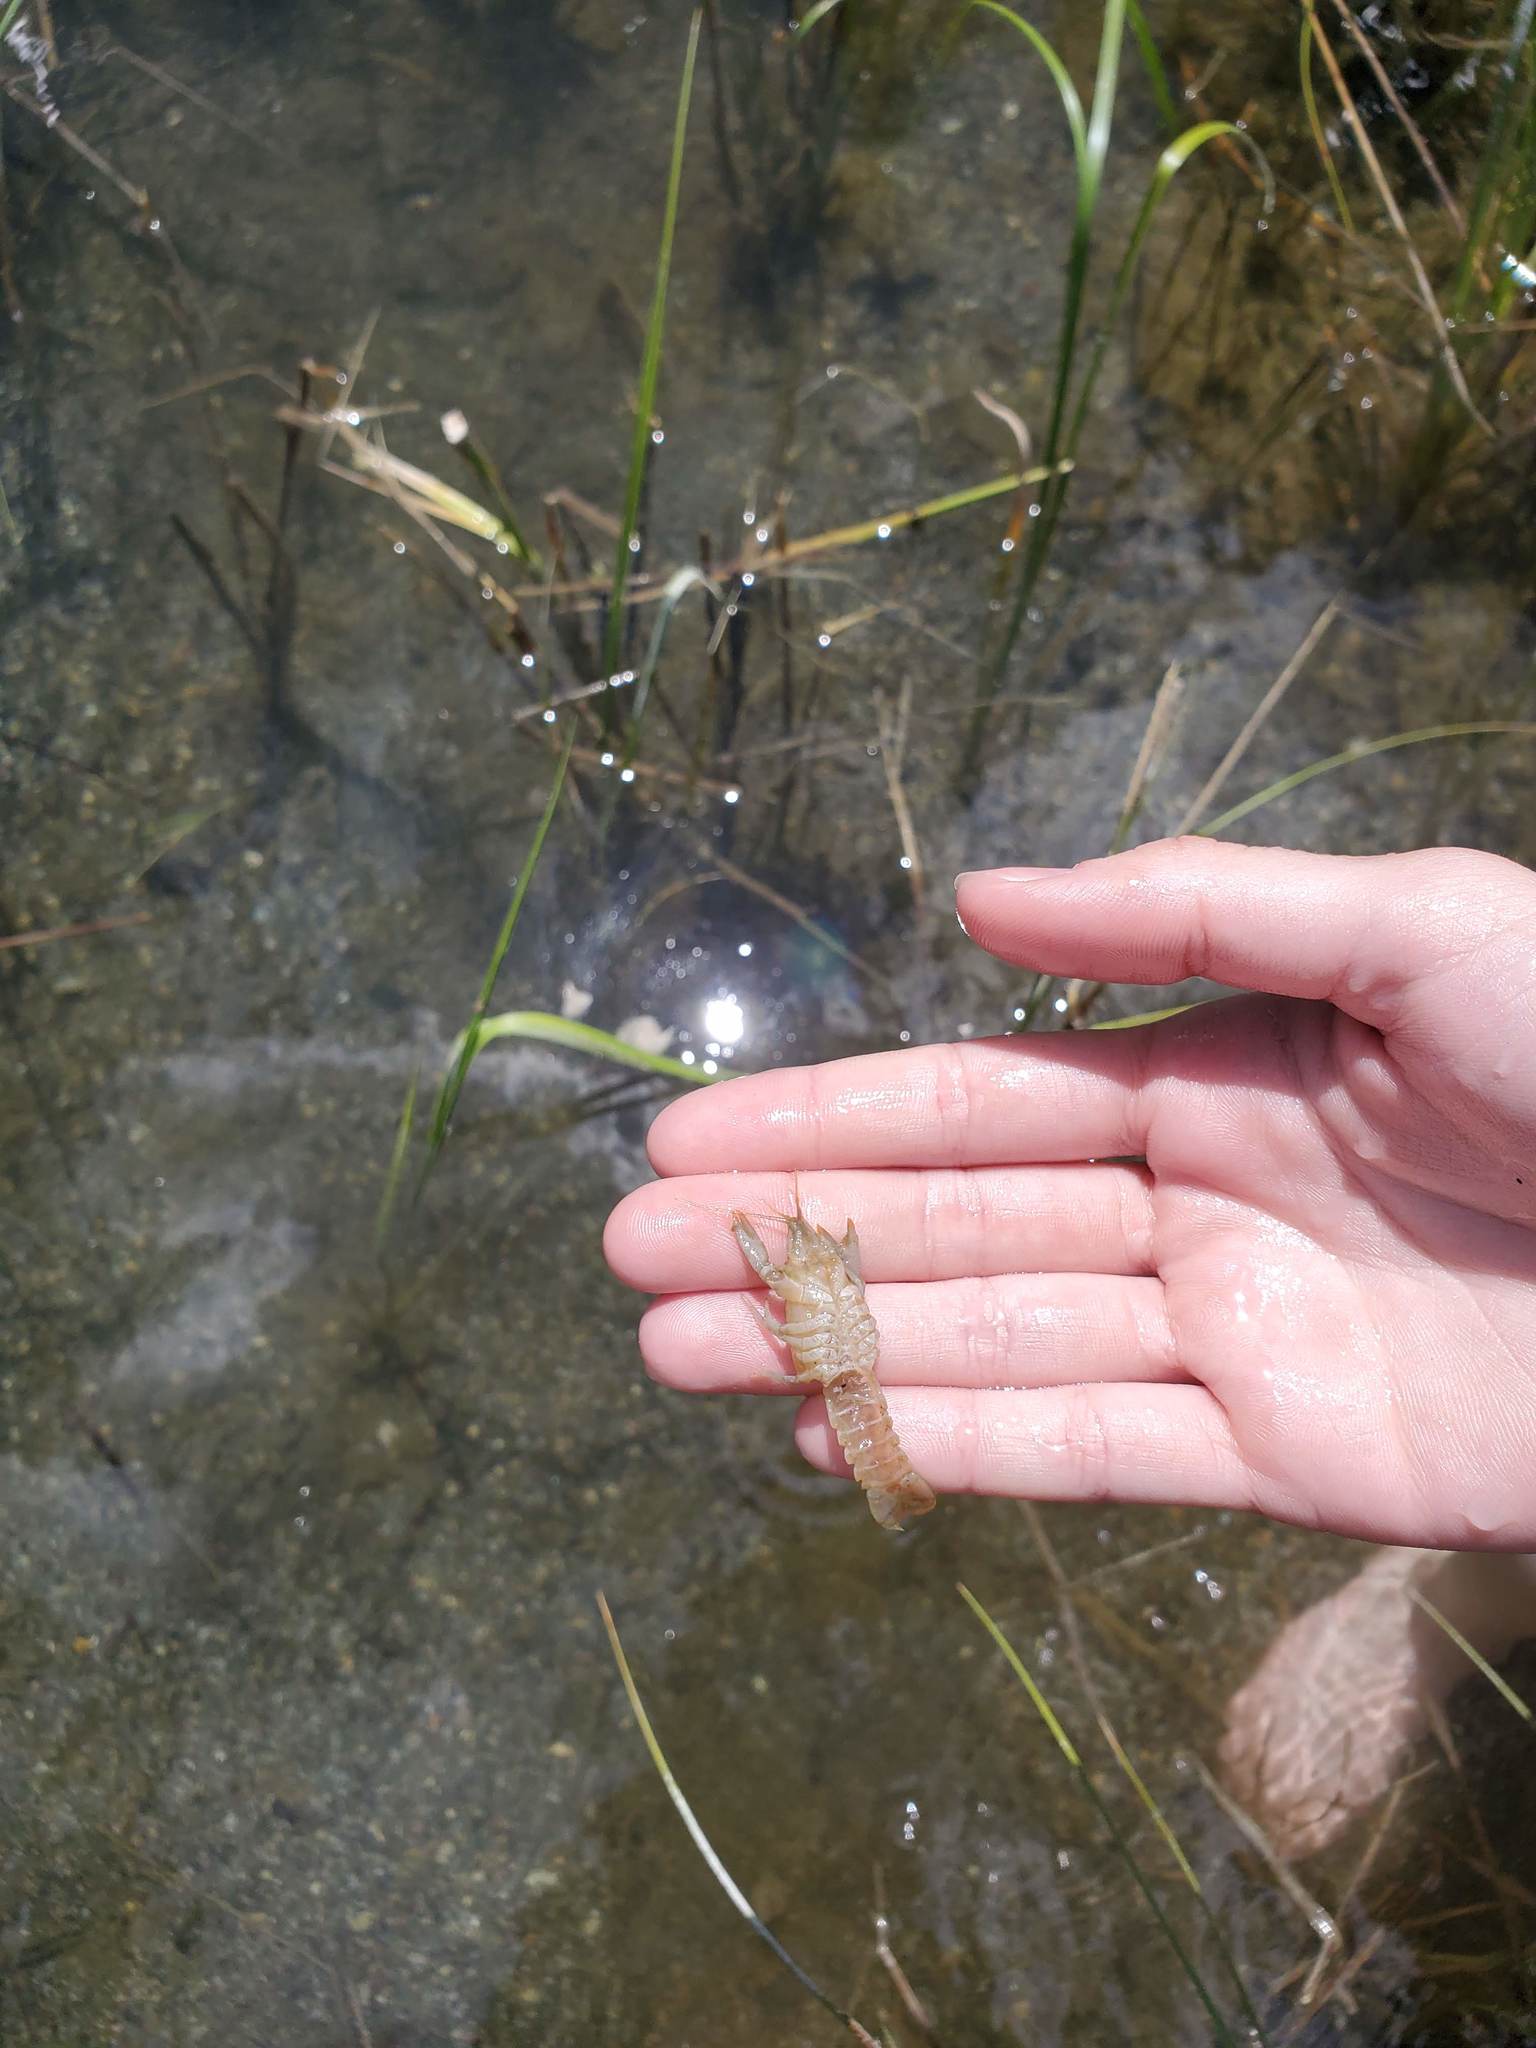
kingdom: Animalia
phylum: Arthropoda
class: Malacostraca
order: Decapoda
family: Cambaridae
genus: Faxonius
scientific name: Faxonius virilis
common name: Virile crayfish
